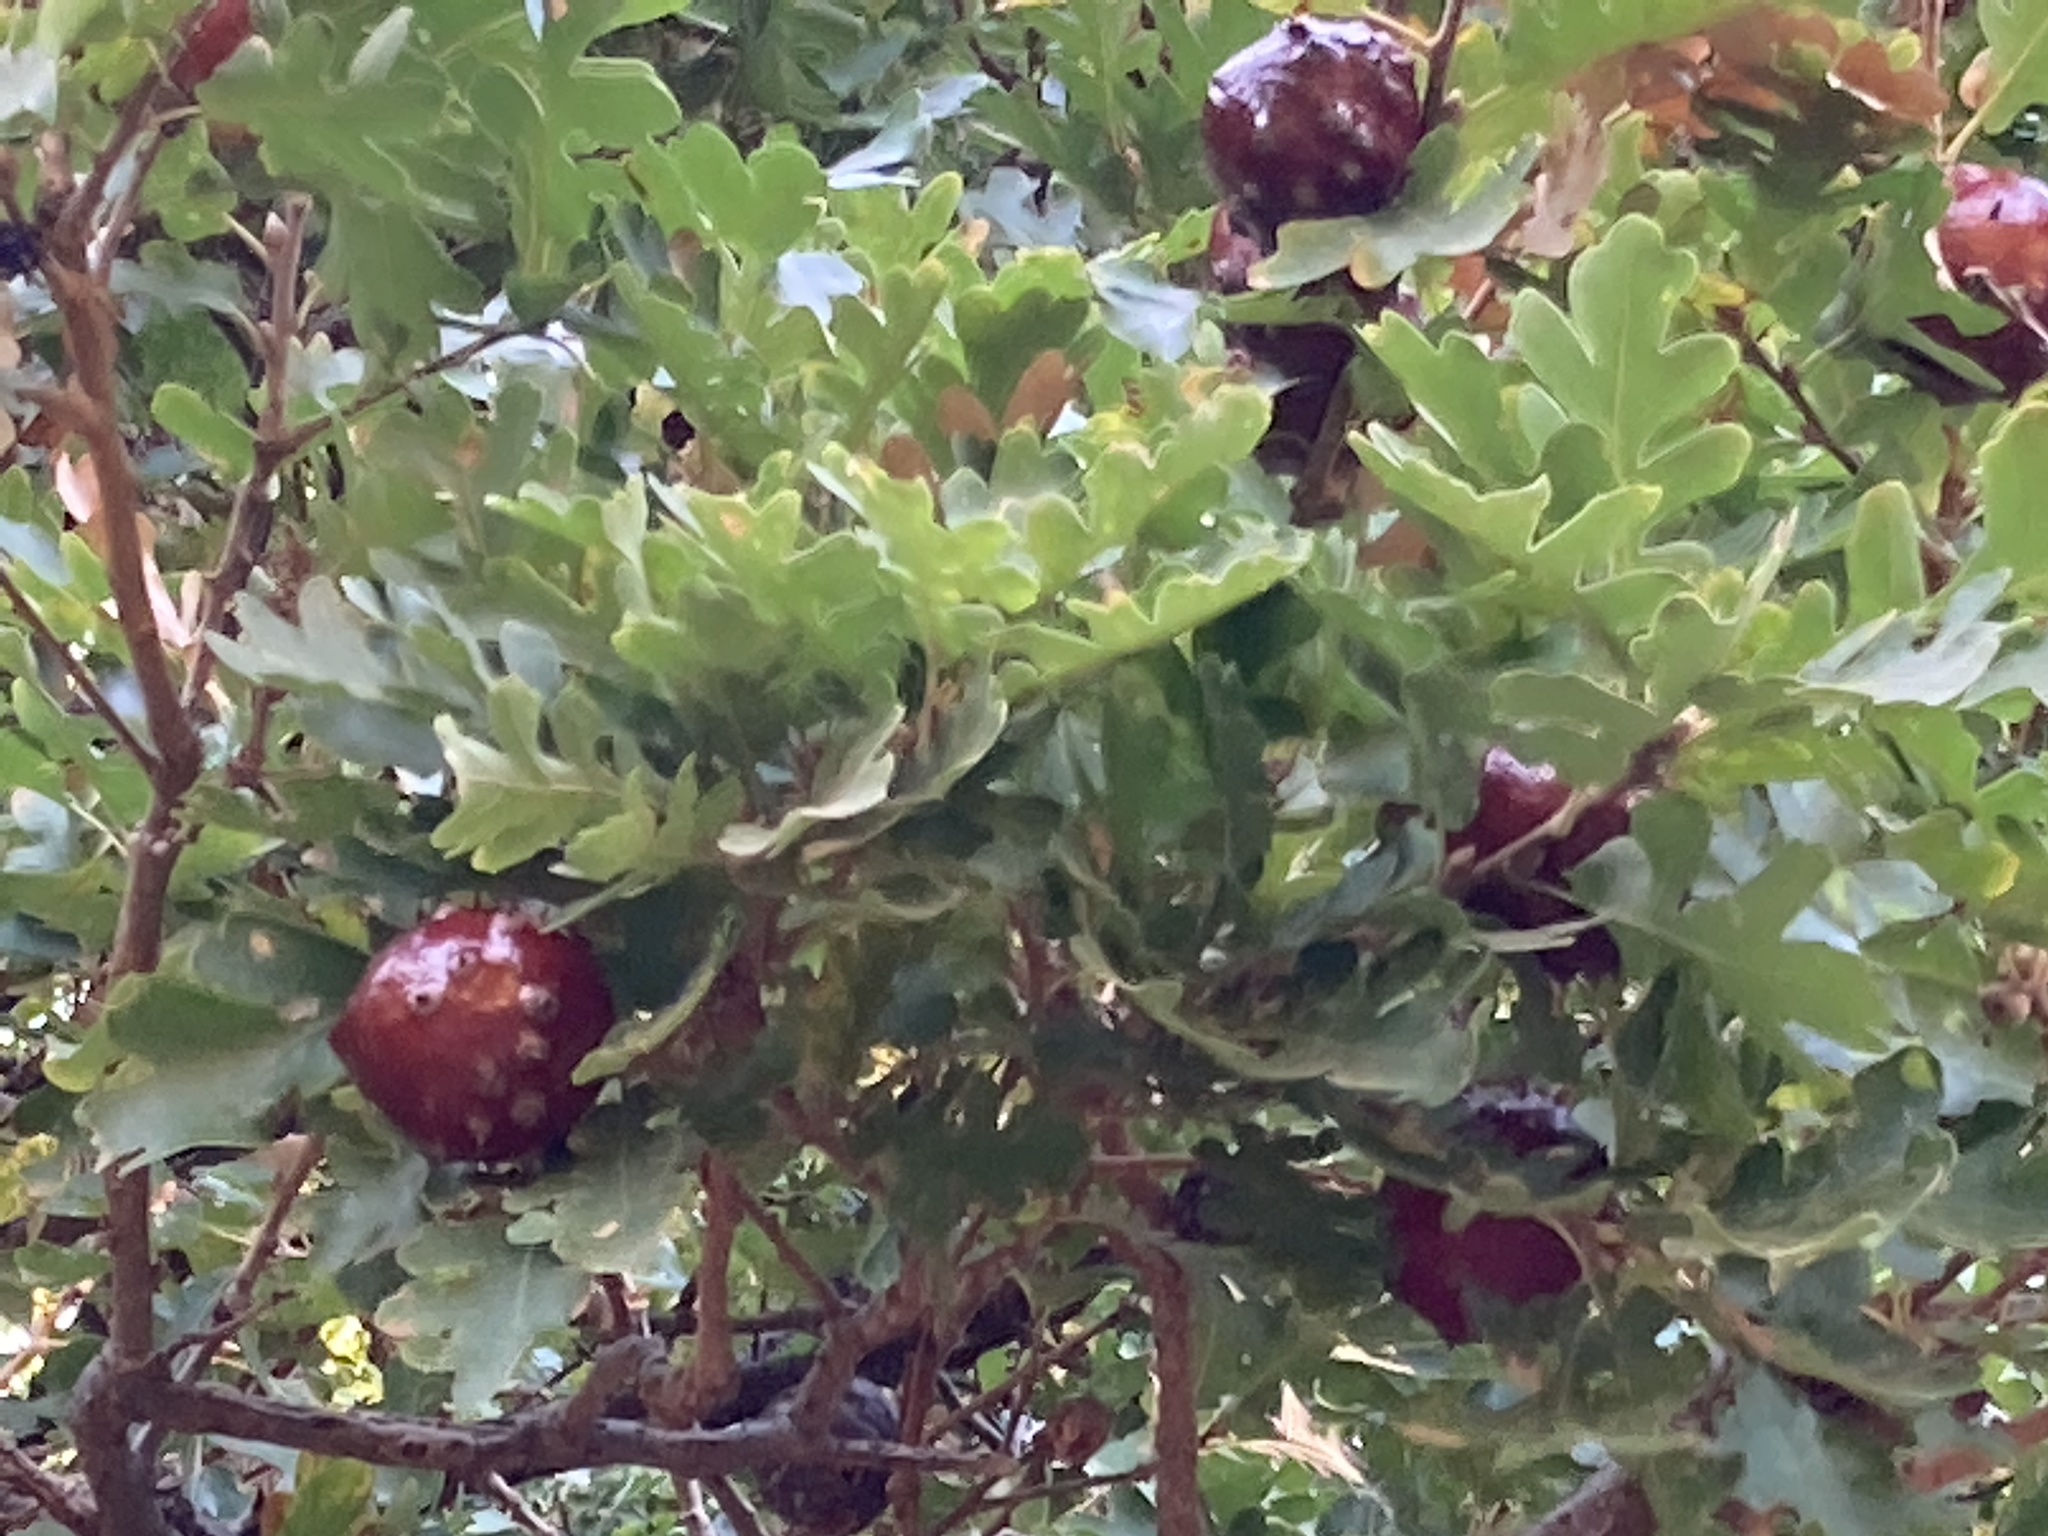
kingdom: Plantae
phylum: Tracheophyta
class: Magnoliopsida
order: Fagales
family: Fagaceae
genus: Quercus
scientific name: Quercus pubescens
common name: Downy oak
